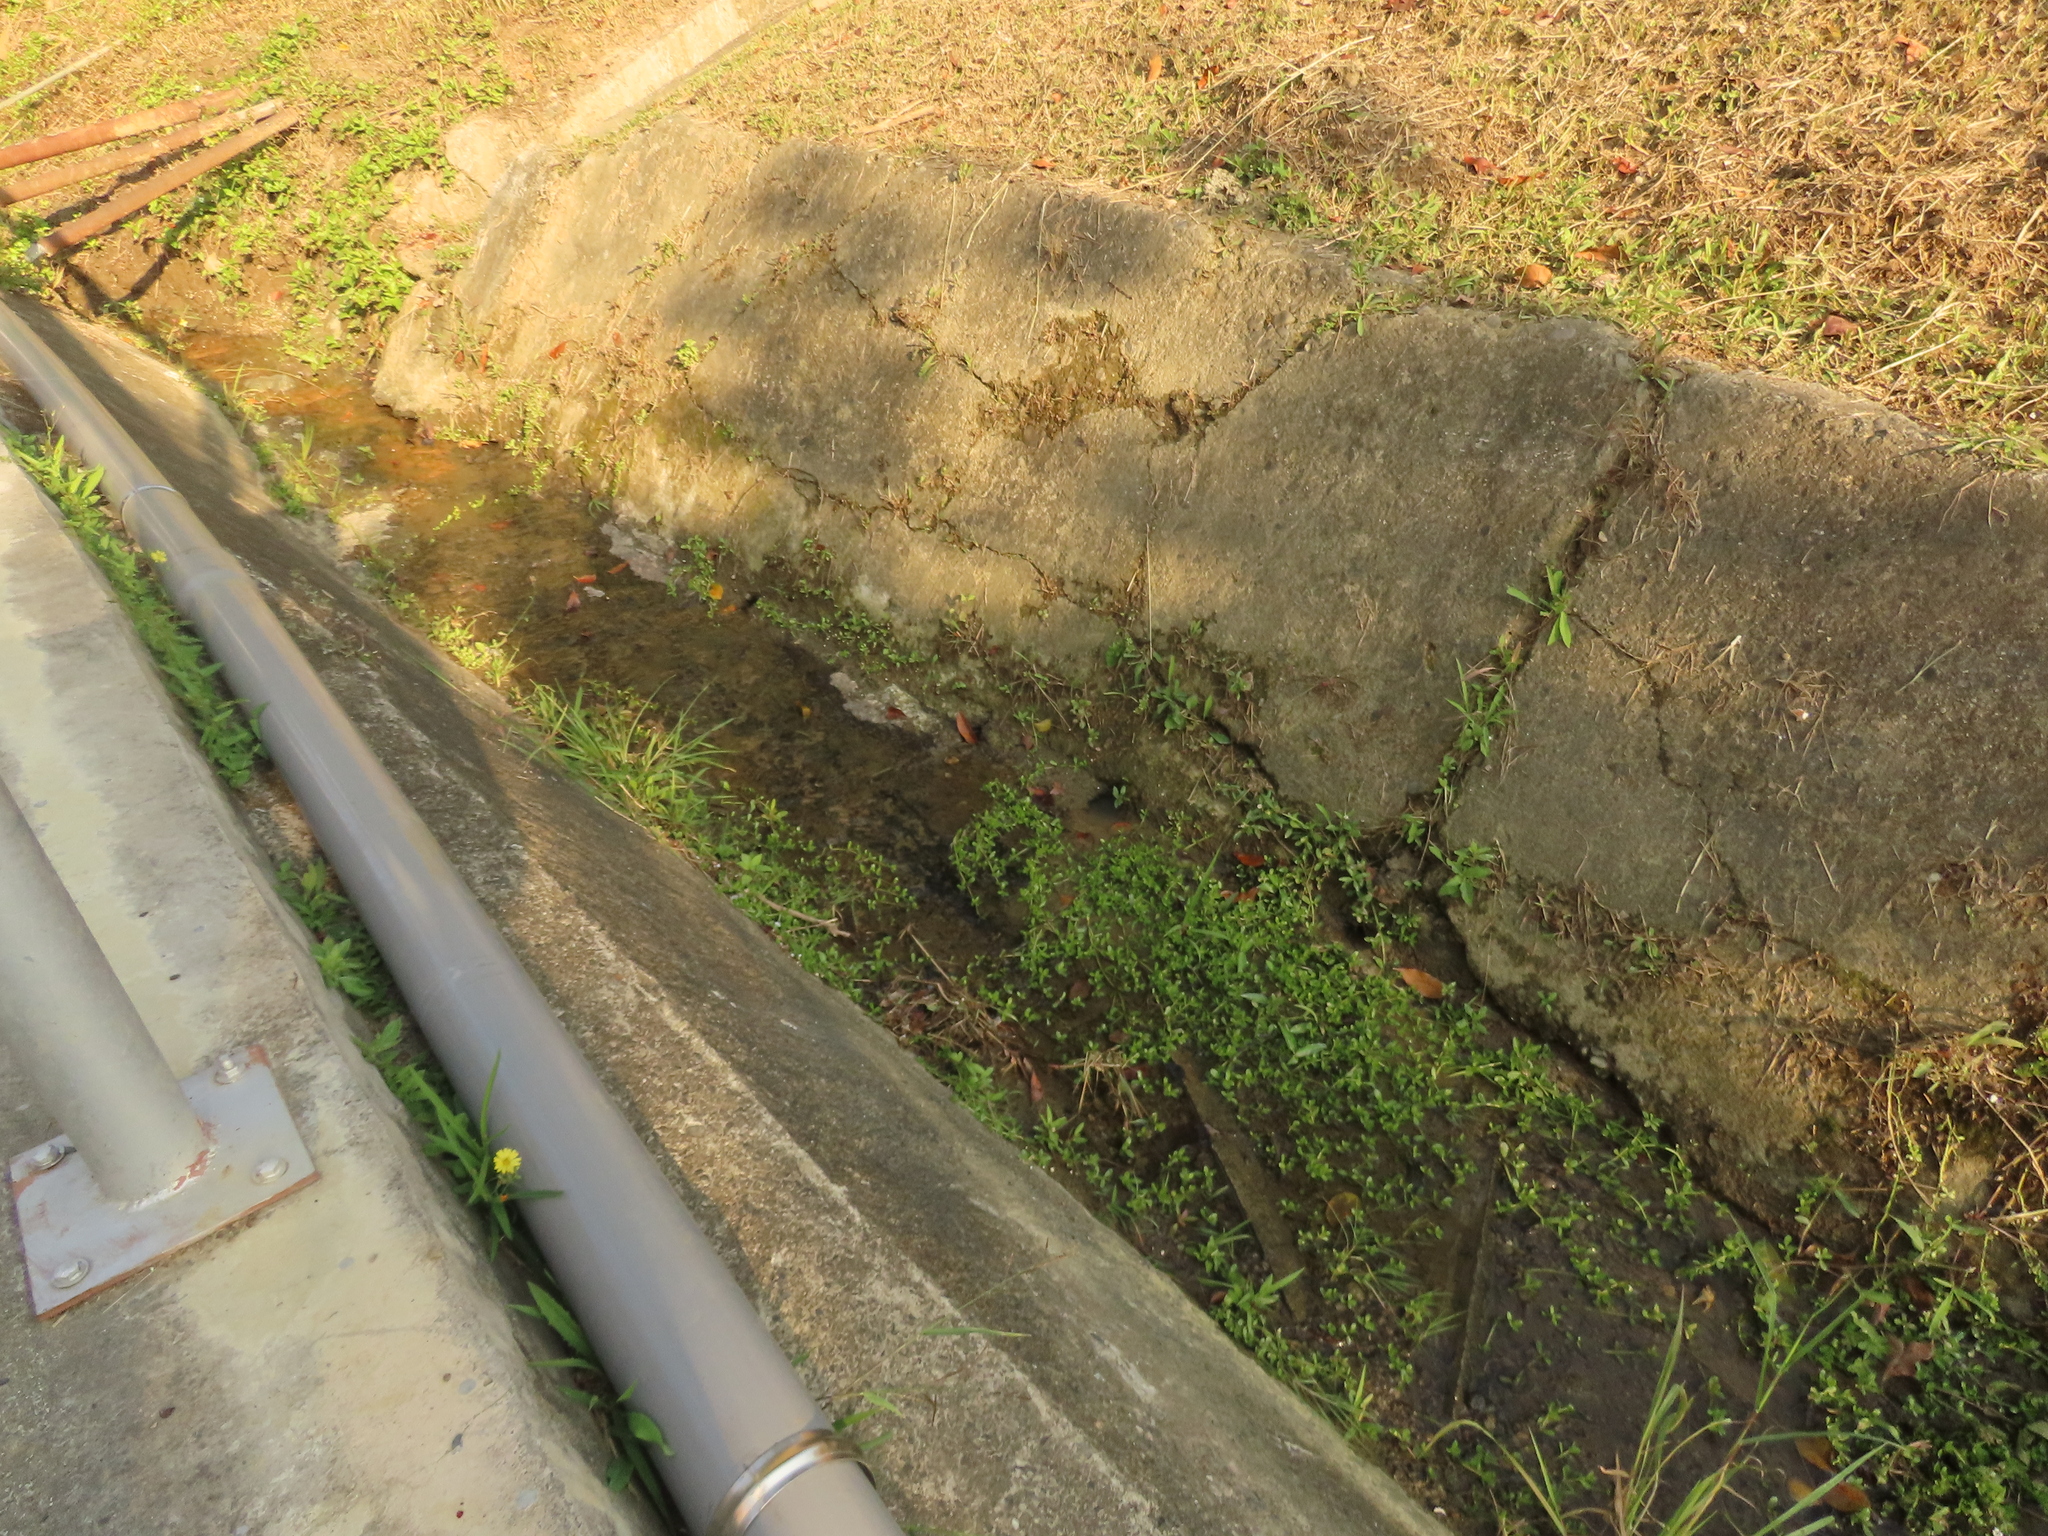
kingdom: Plantae
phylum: Tracheophyta
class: Magnoliopsida
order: Lamiales
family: Plantaginaceae
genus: Bacopa
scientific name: Bacopa monnieri
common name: Indian-pennywort
